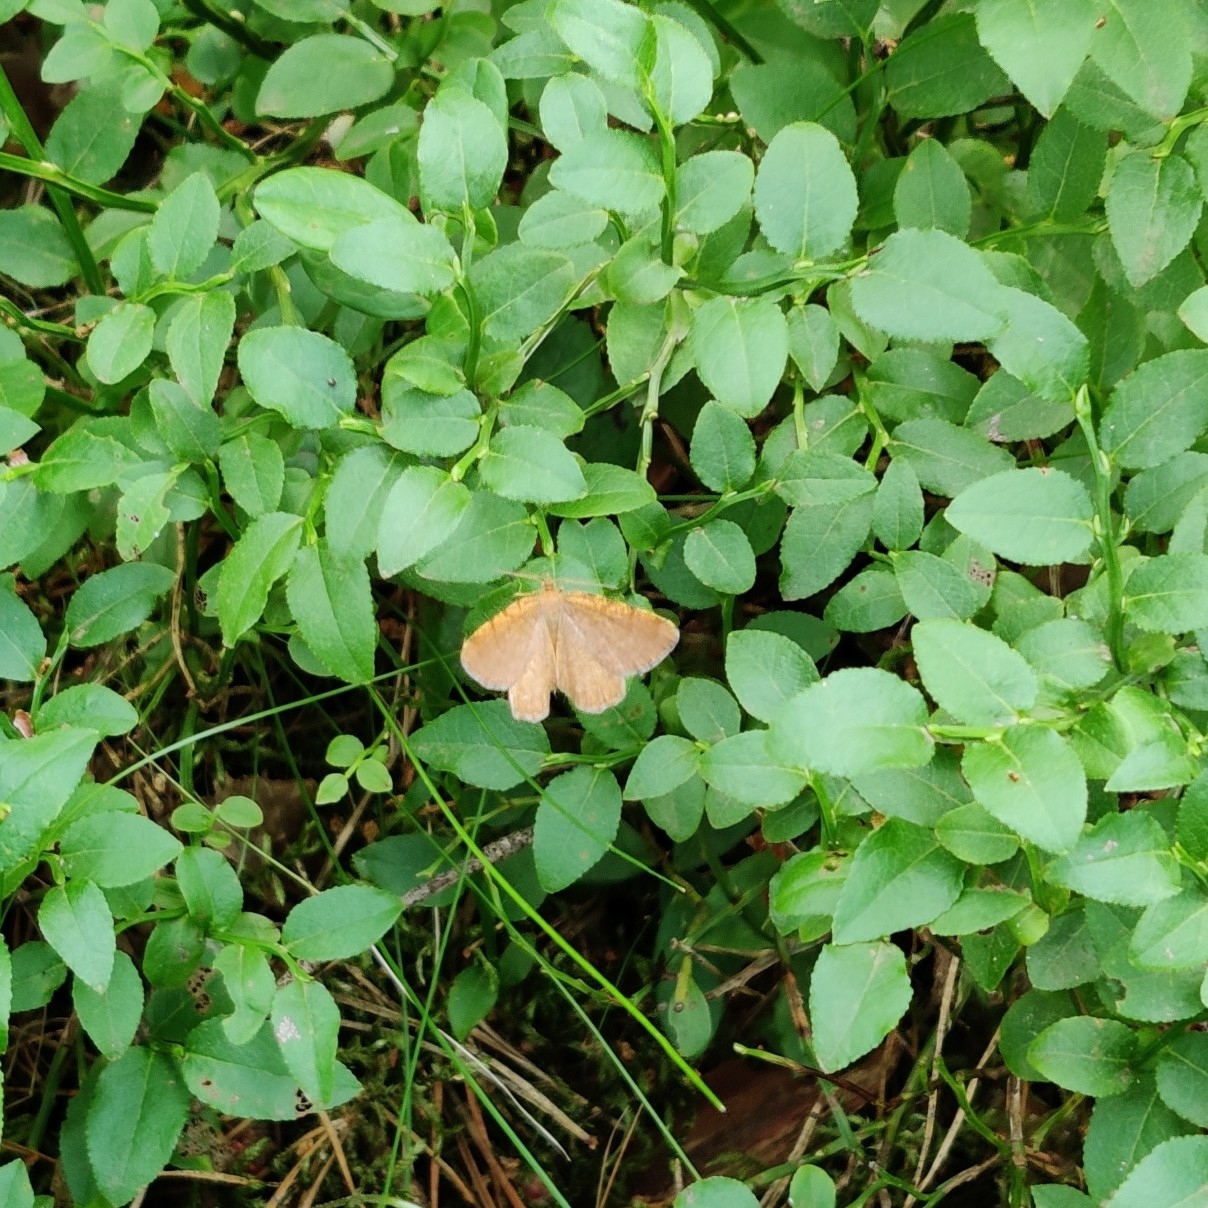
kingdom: Animalia
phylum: Arthropoda
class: Insecta
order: Lepidoptera
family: Geometridae
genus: Macaria
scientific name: Macaria brunneata
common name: Rannoch looper
